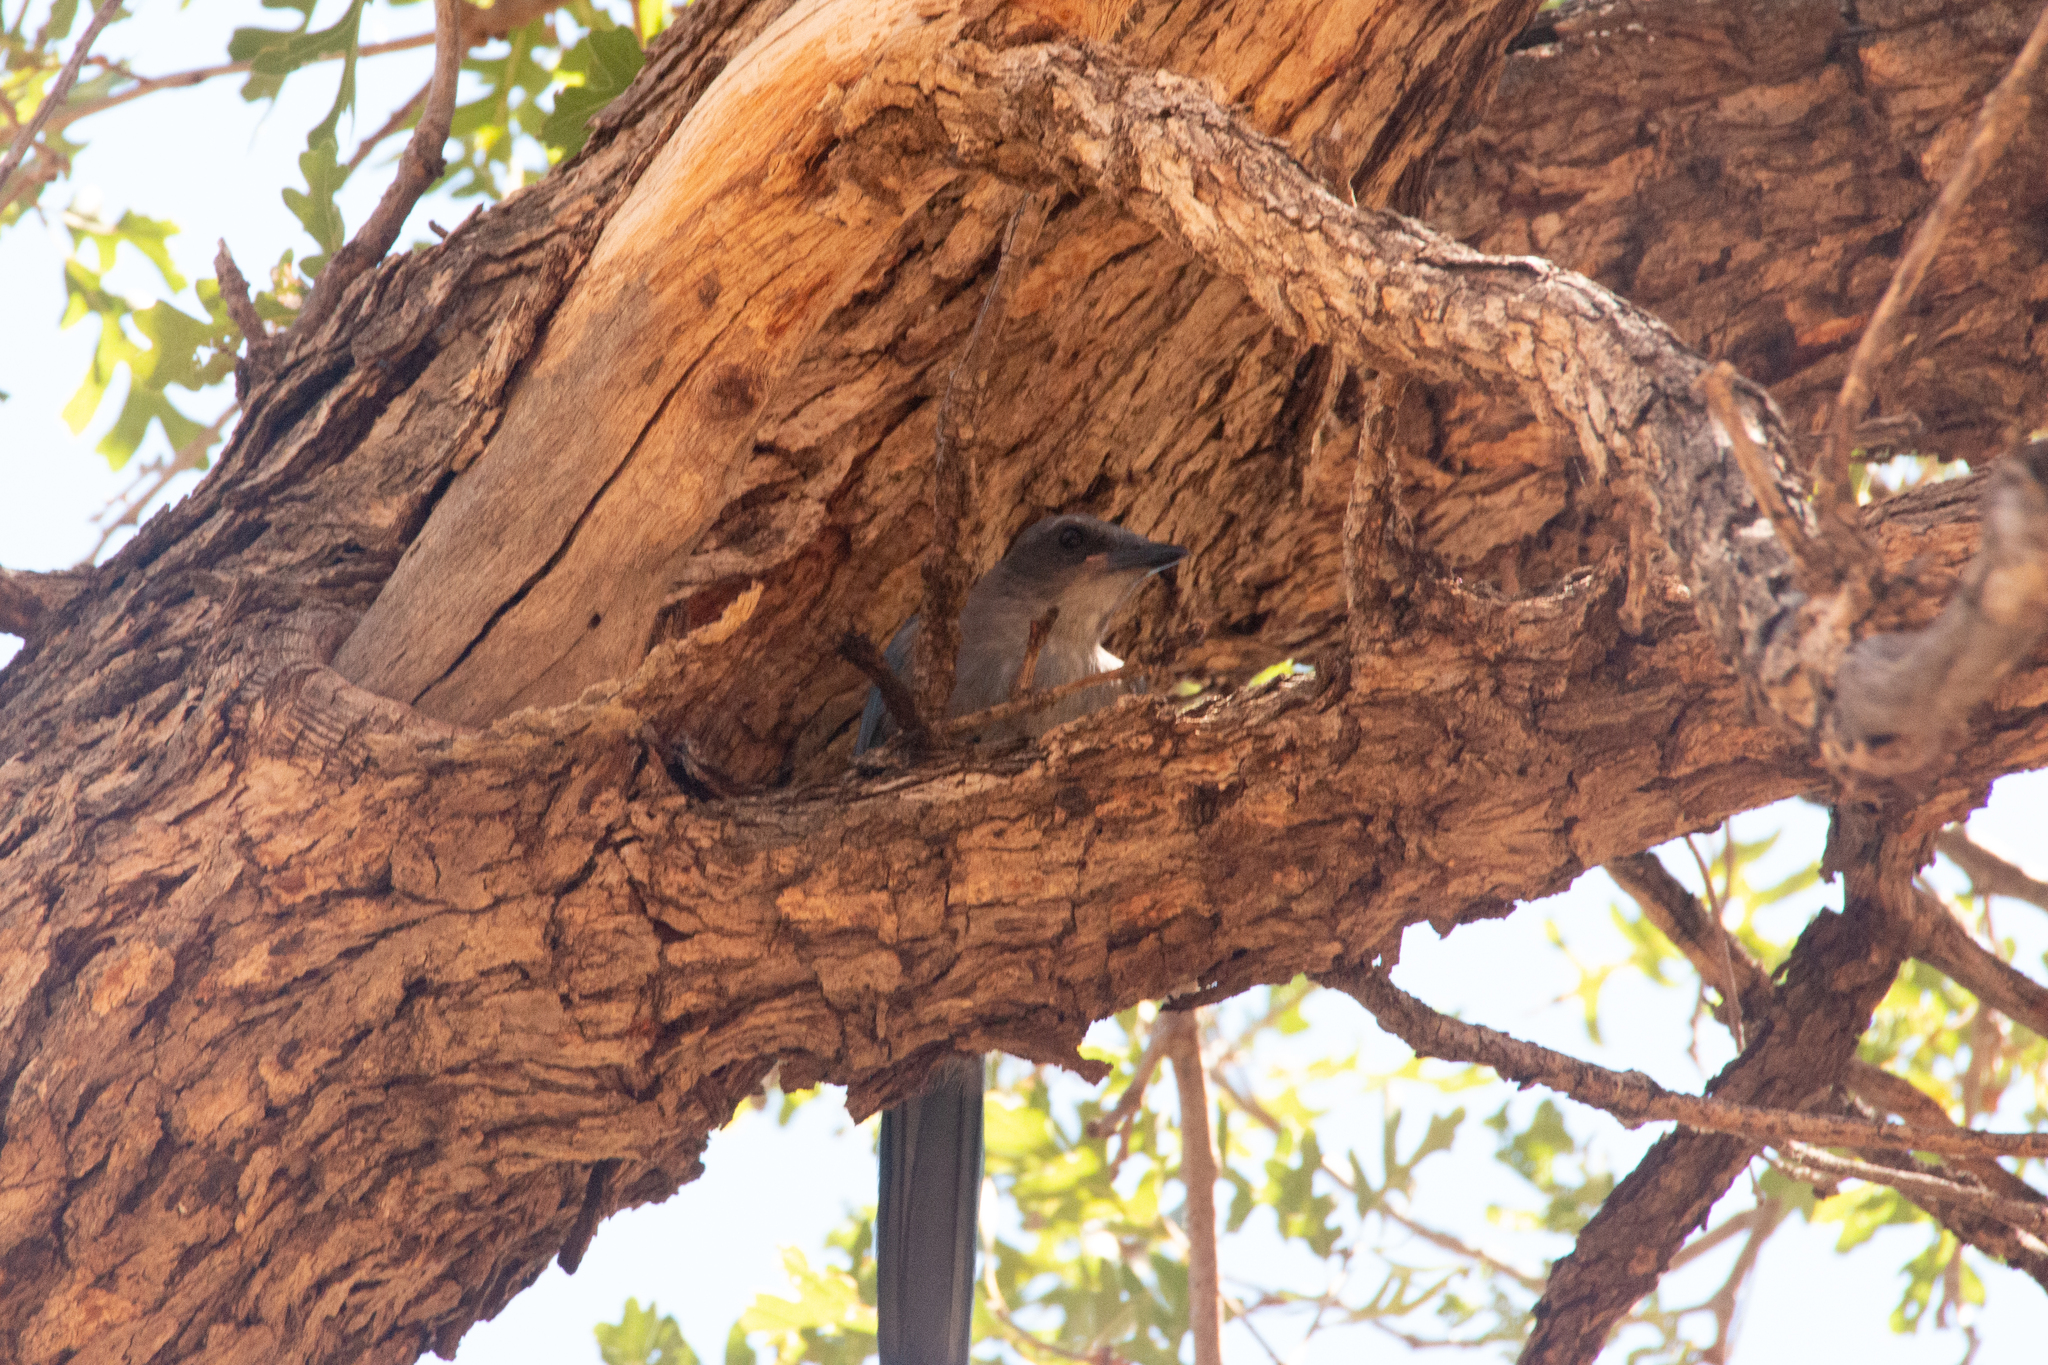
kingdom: Animalia
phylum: Chordata
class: Aves
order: Passeriformes
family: Corvidae
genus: Aphelocoma
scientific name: Aphelocoma woodhouseii
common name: Woodhouse's scrub-jay
